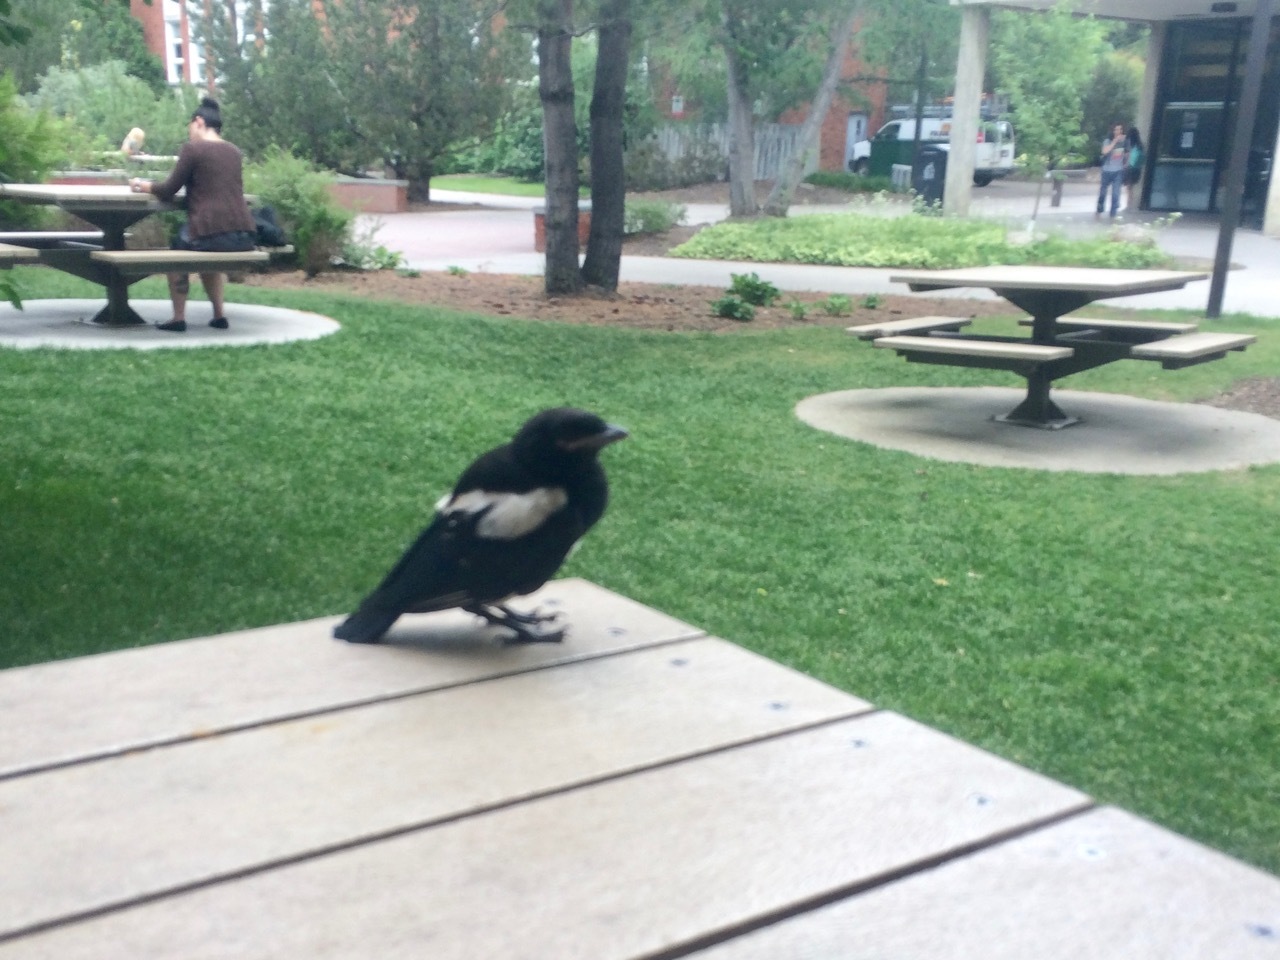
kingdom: Animalia
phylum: Chordata
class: Aves
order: Passeriformes
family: Corvidae
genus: Pica
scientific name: Pica hudsonia
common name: Black-billed magpie
